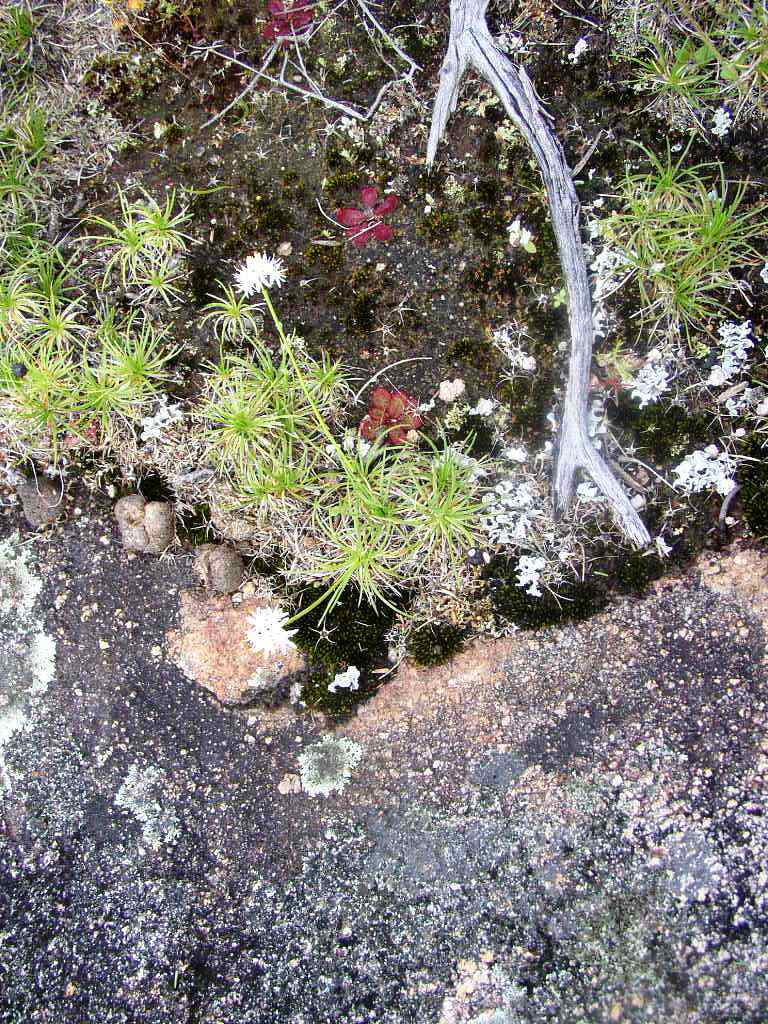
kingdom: Plantae
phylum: Tracheophyta
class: Liliopsida
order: Asparagales
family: Boryaceae
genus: Borya
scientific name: Borya scirpoidea
